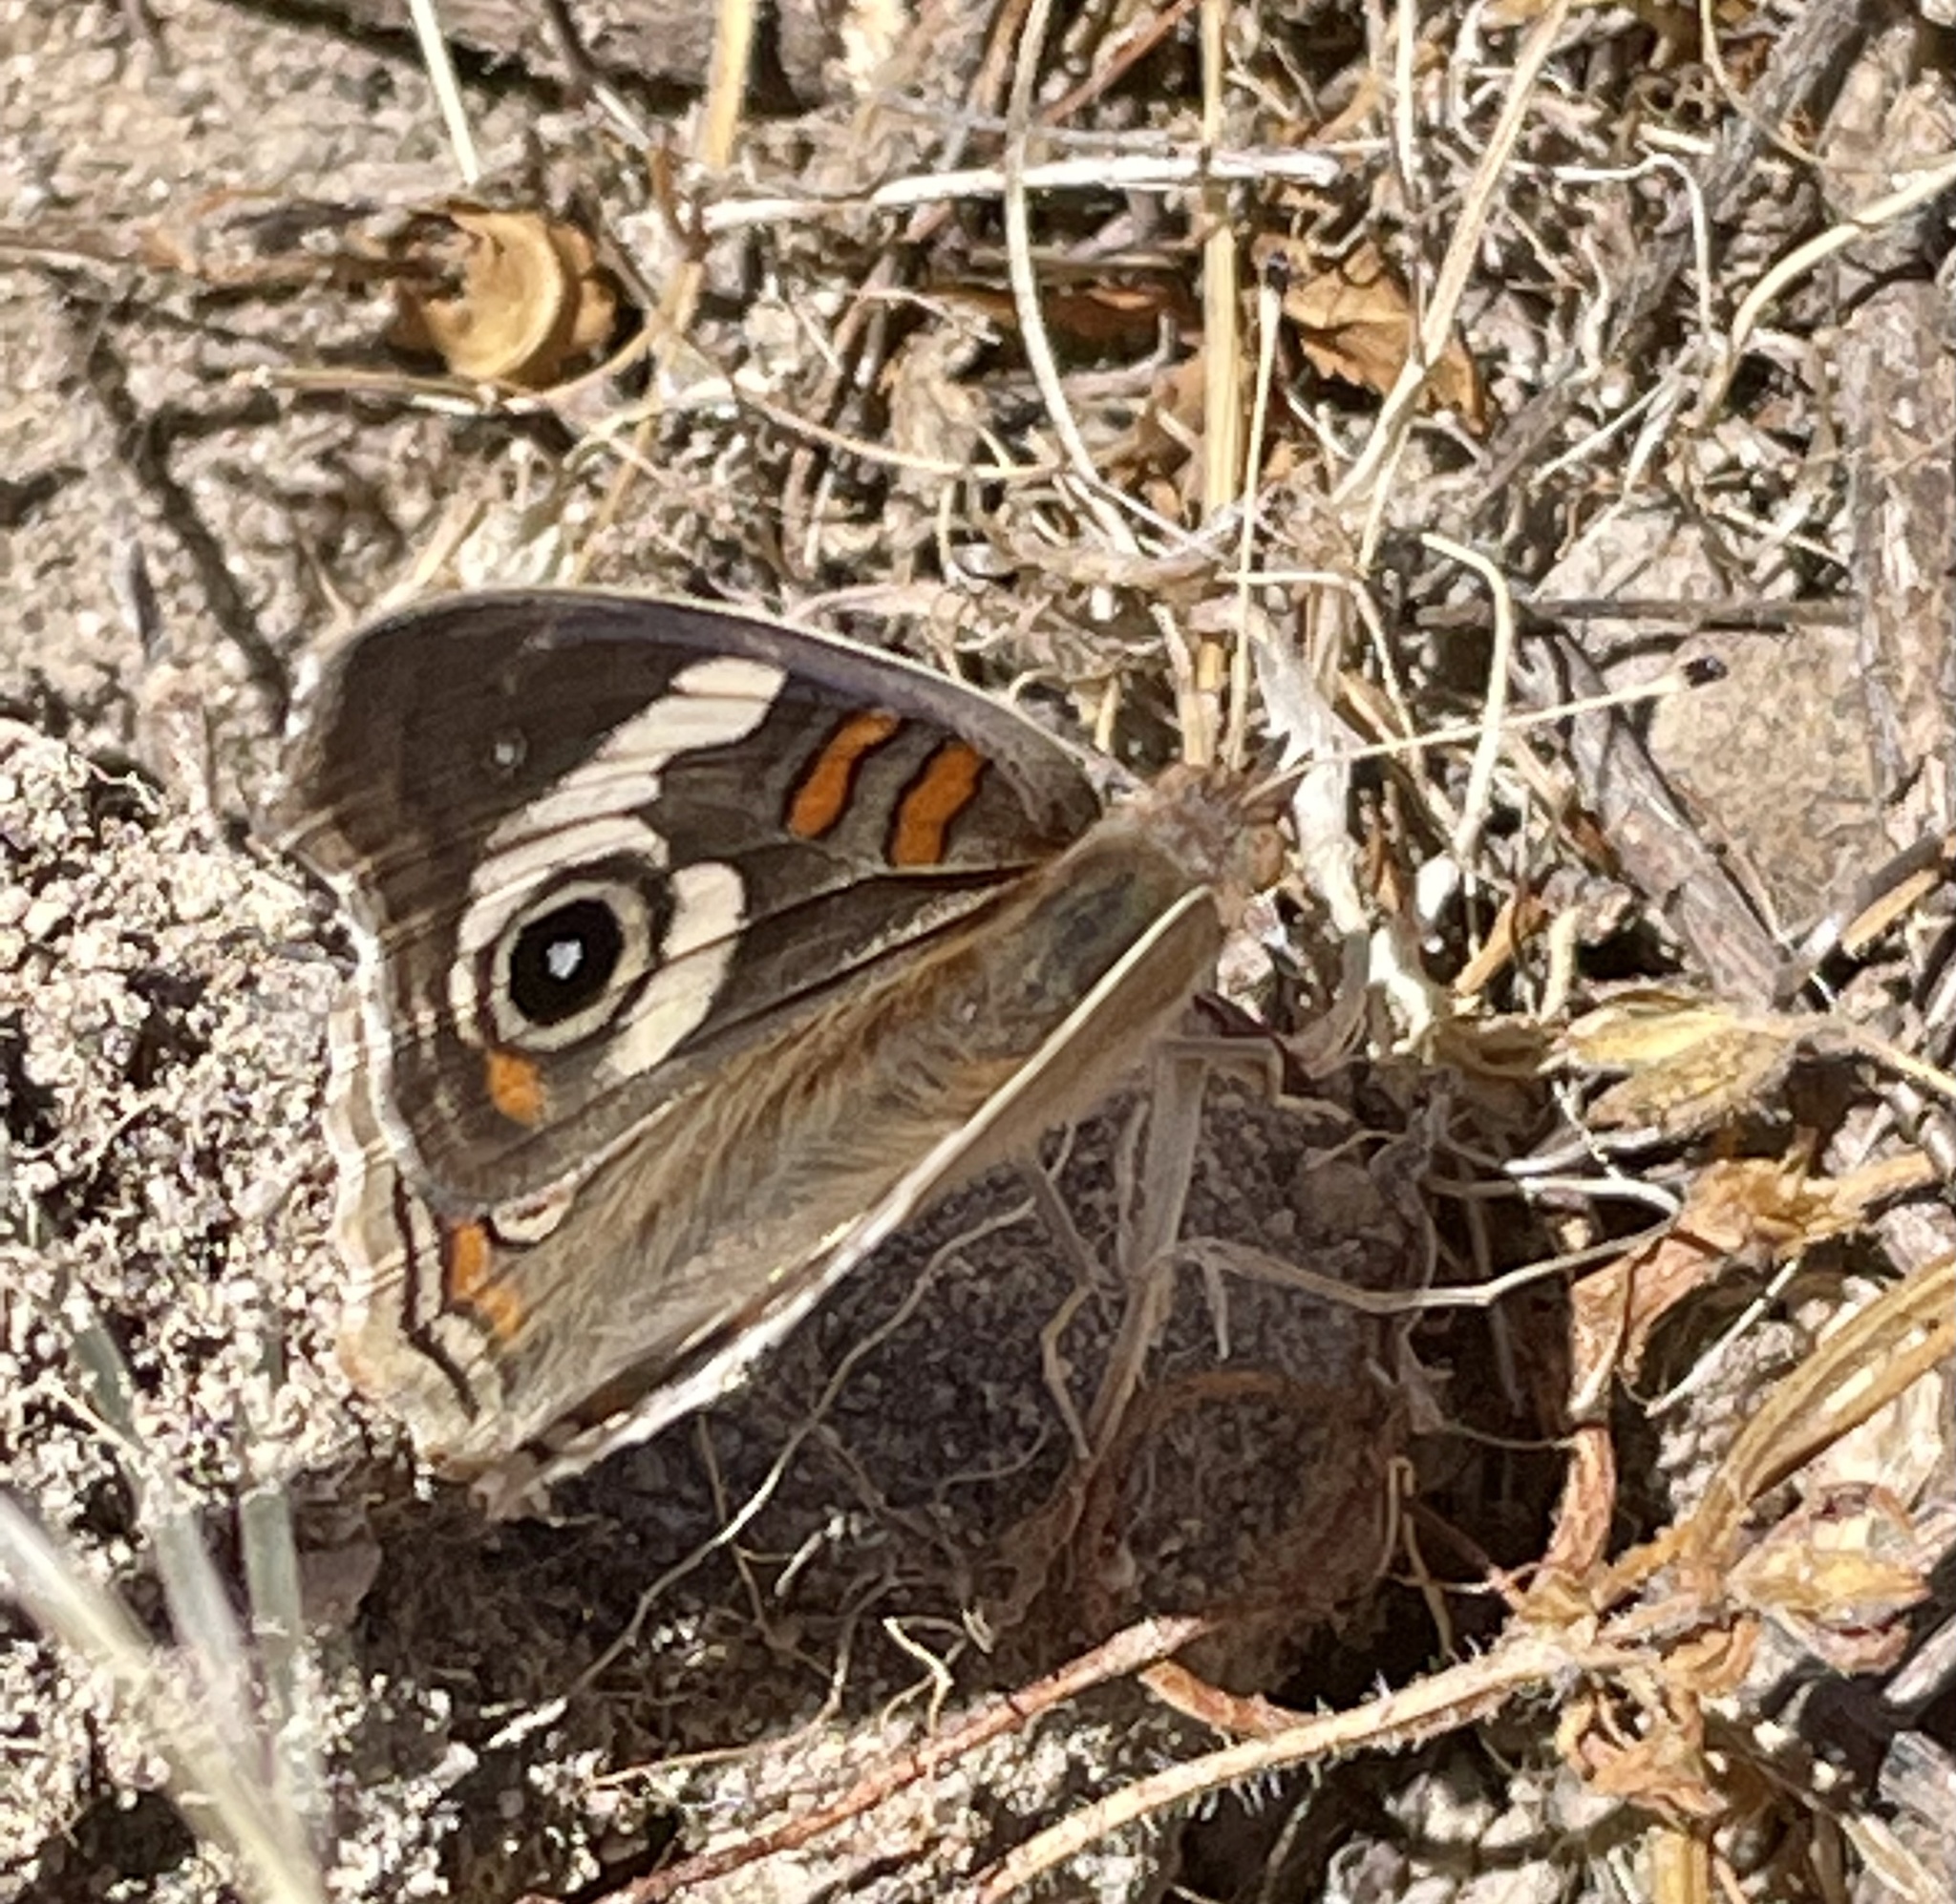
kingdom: Animalia
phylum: Arthropoda
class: Insecta
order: Lepidoptera
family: Nymphalidae
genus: Junonia
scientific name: Junonia grisea
